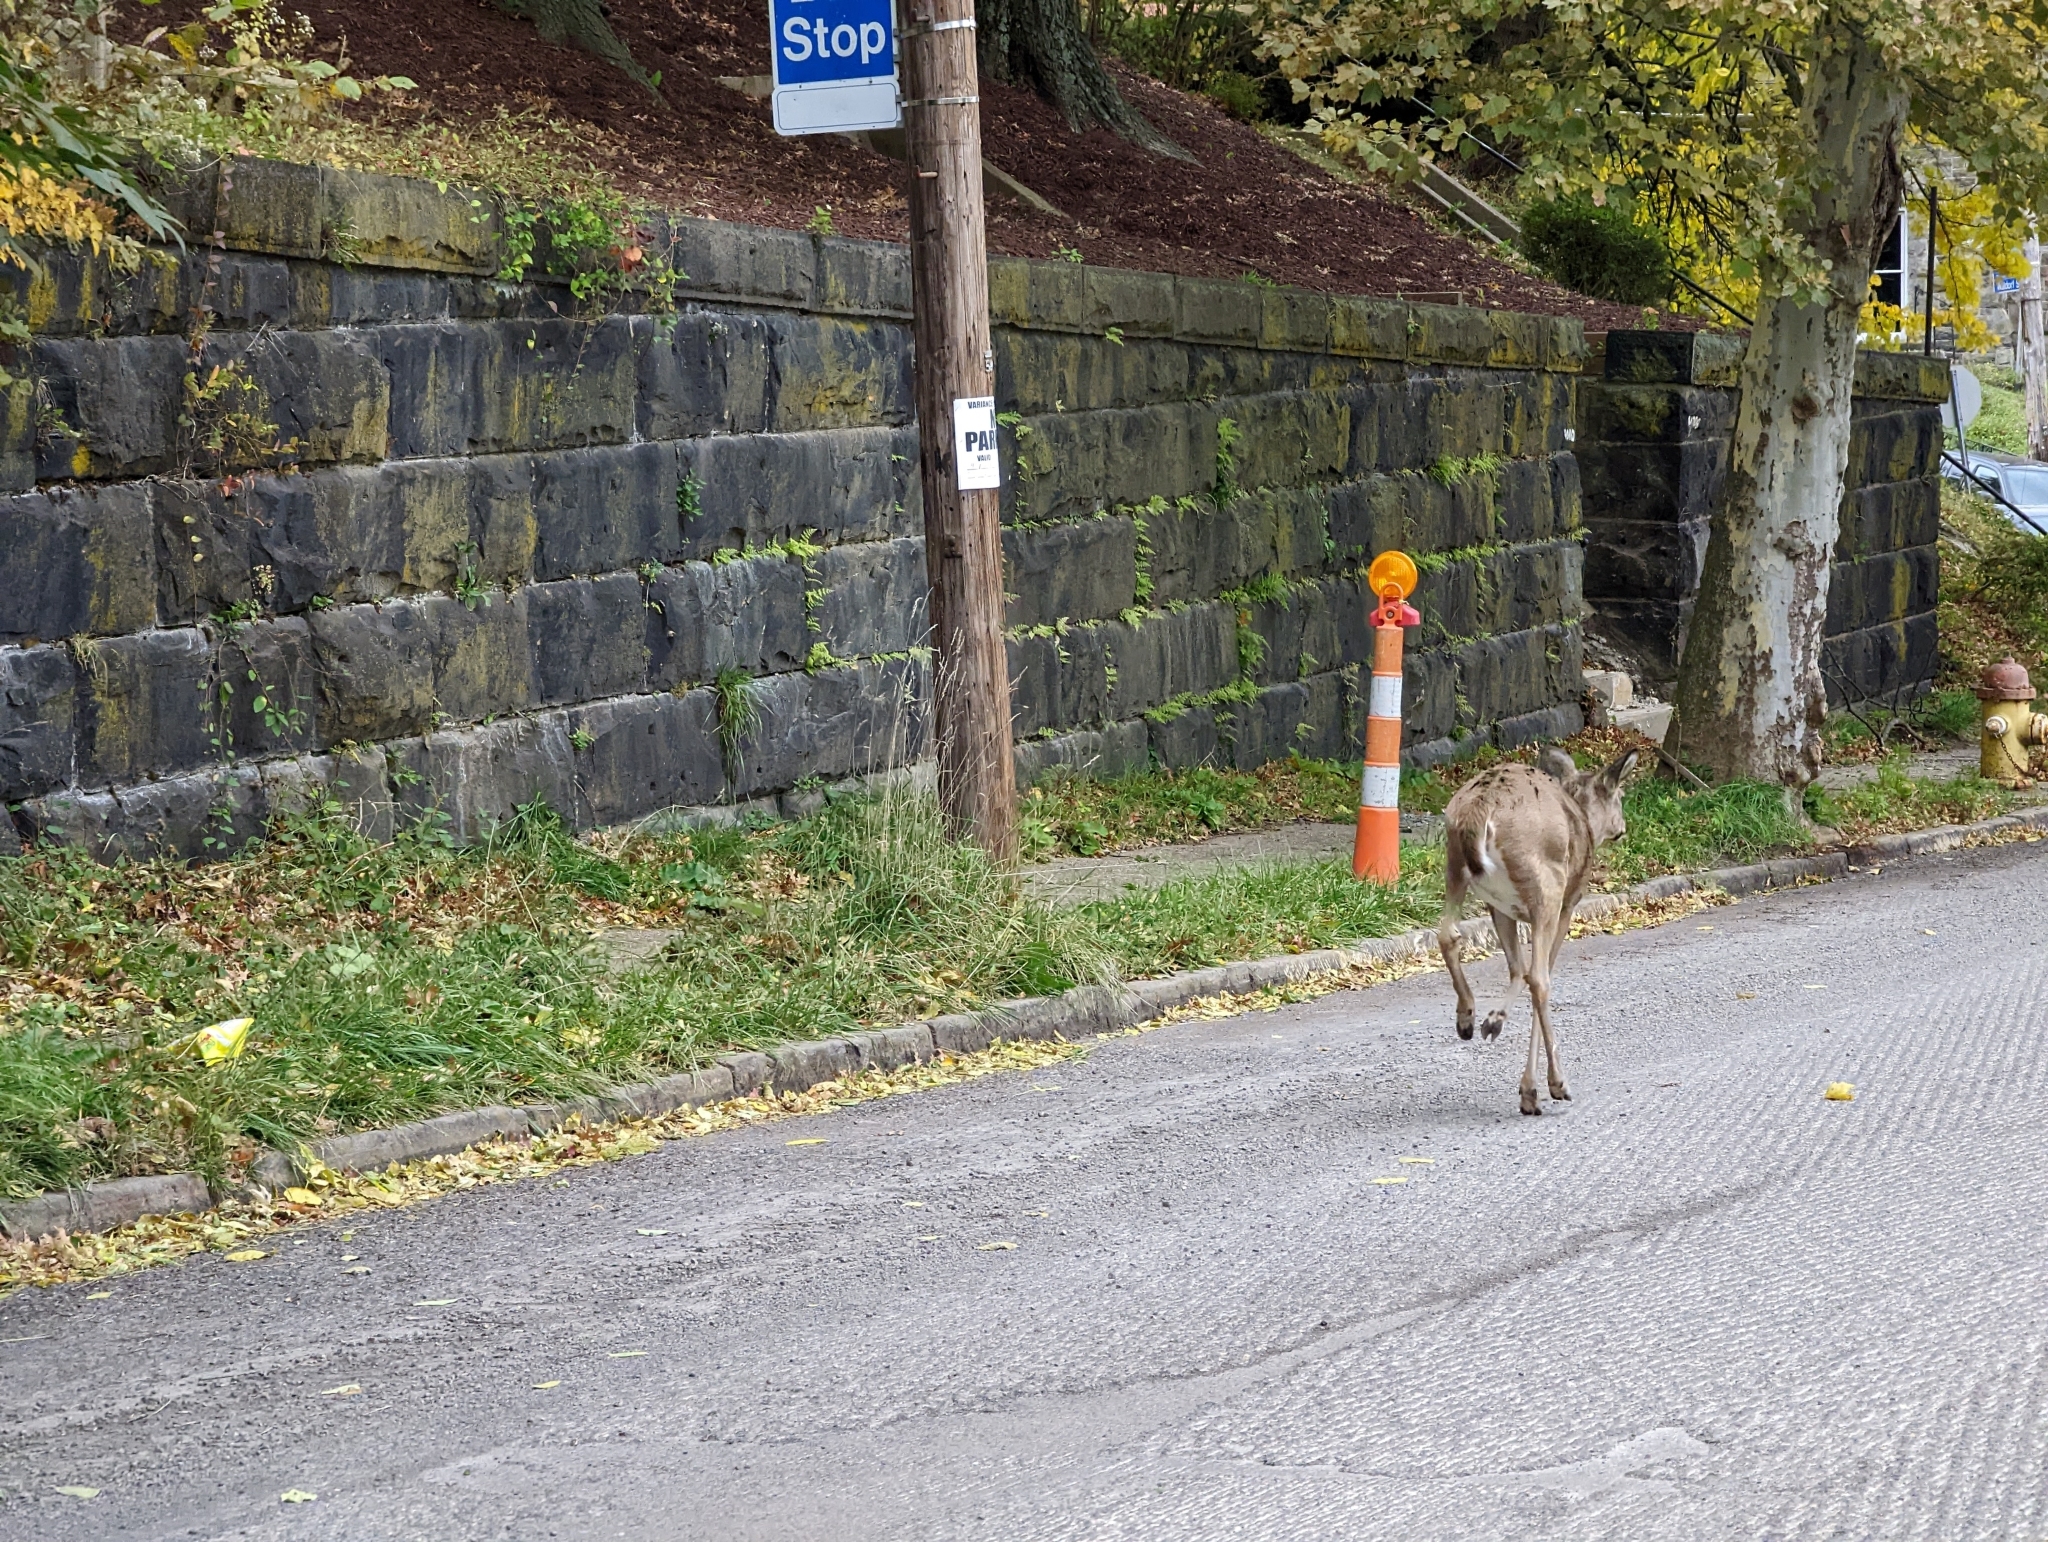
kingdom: Animalia
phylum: Chordata
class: Mammalia
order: Artiodactyla
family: Cervidae
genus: Odocoileus
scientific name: Odocoileus virginianus
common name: White-tailed deer
